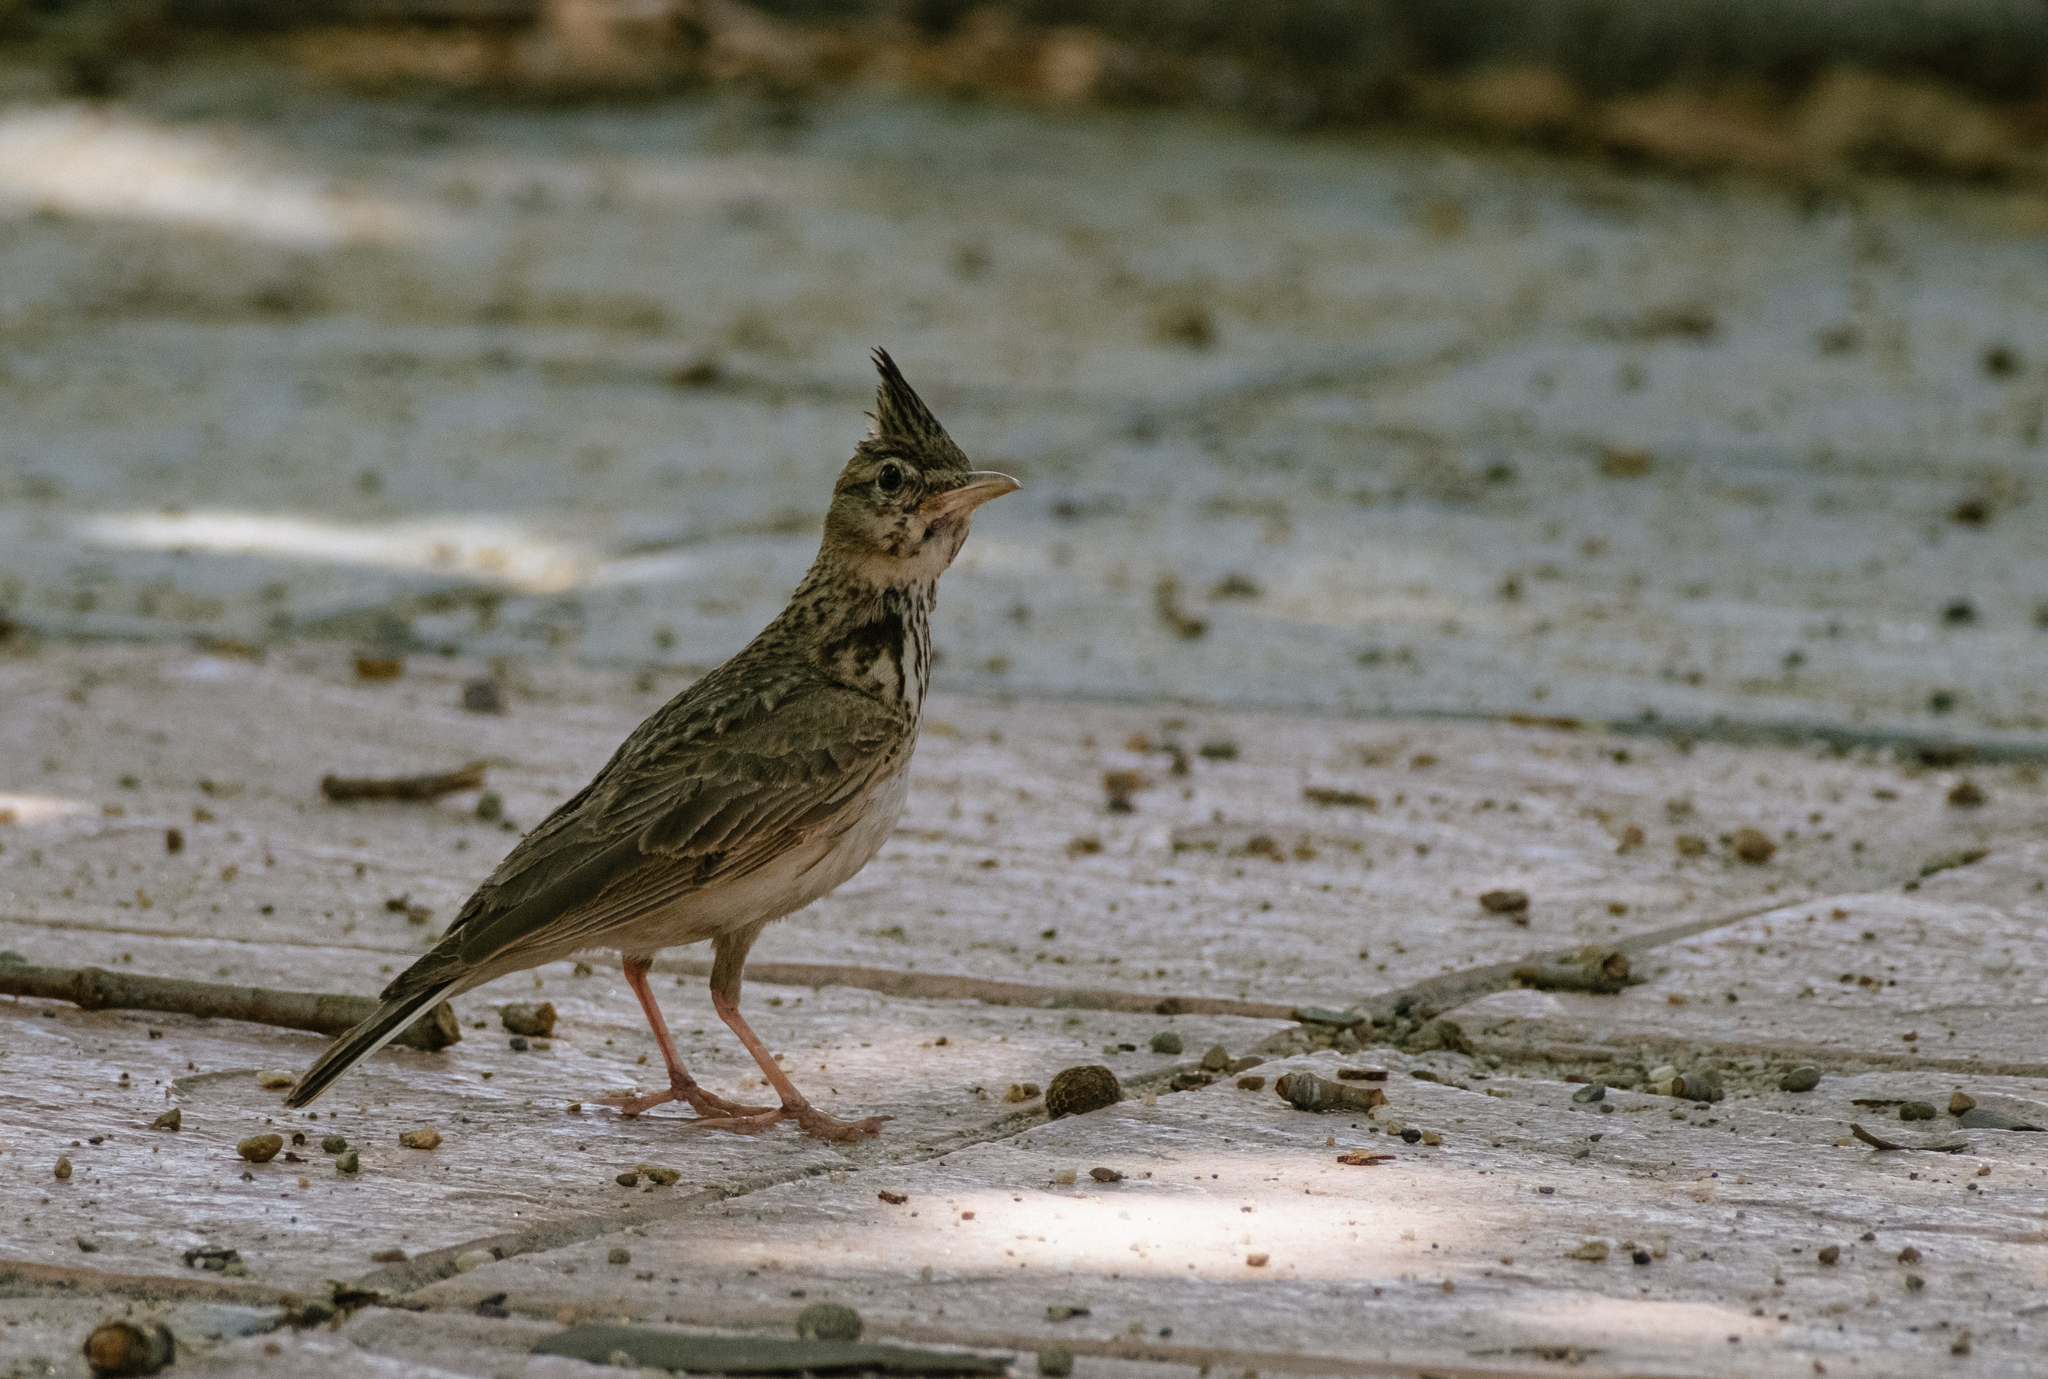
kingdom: Animalia
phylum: Chordata
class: Aves
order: Passeriformes
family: Alaudidae
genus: Galerida
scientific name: Galerida cristata
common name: Crested lark
